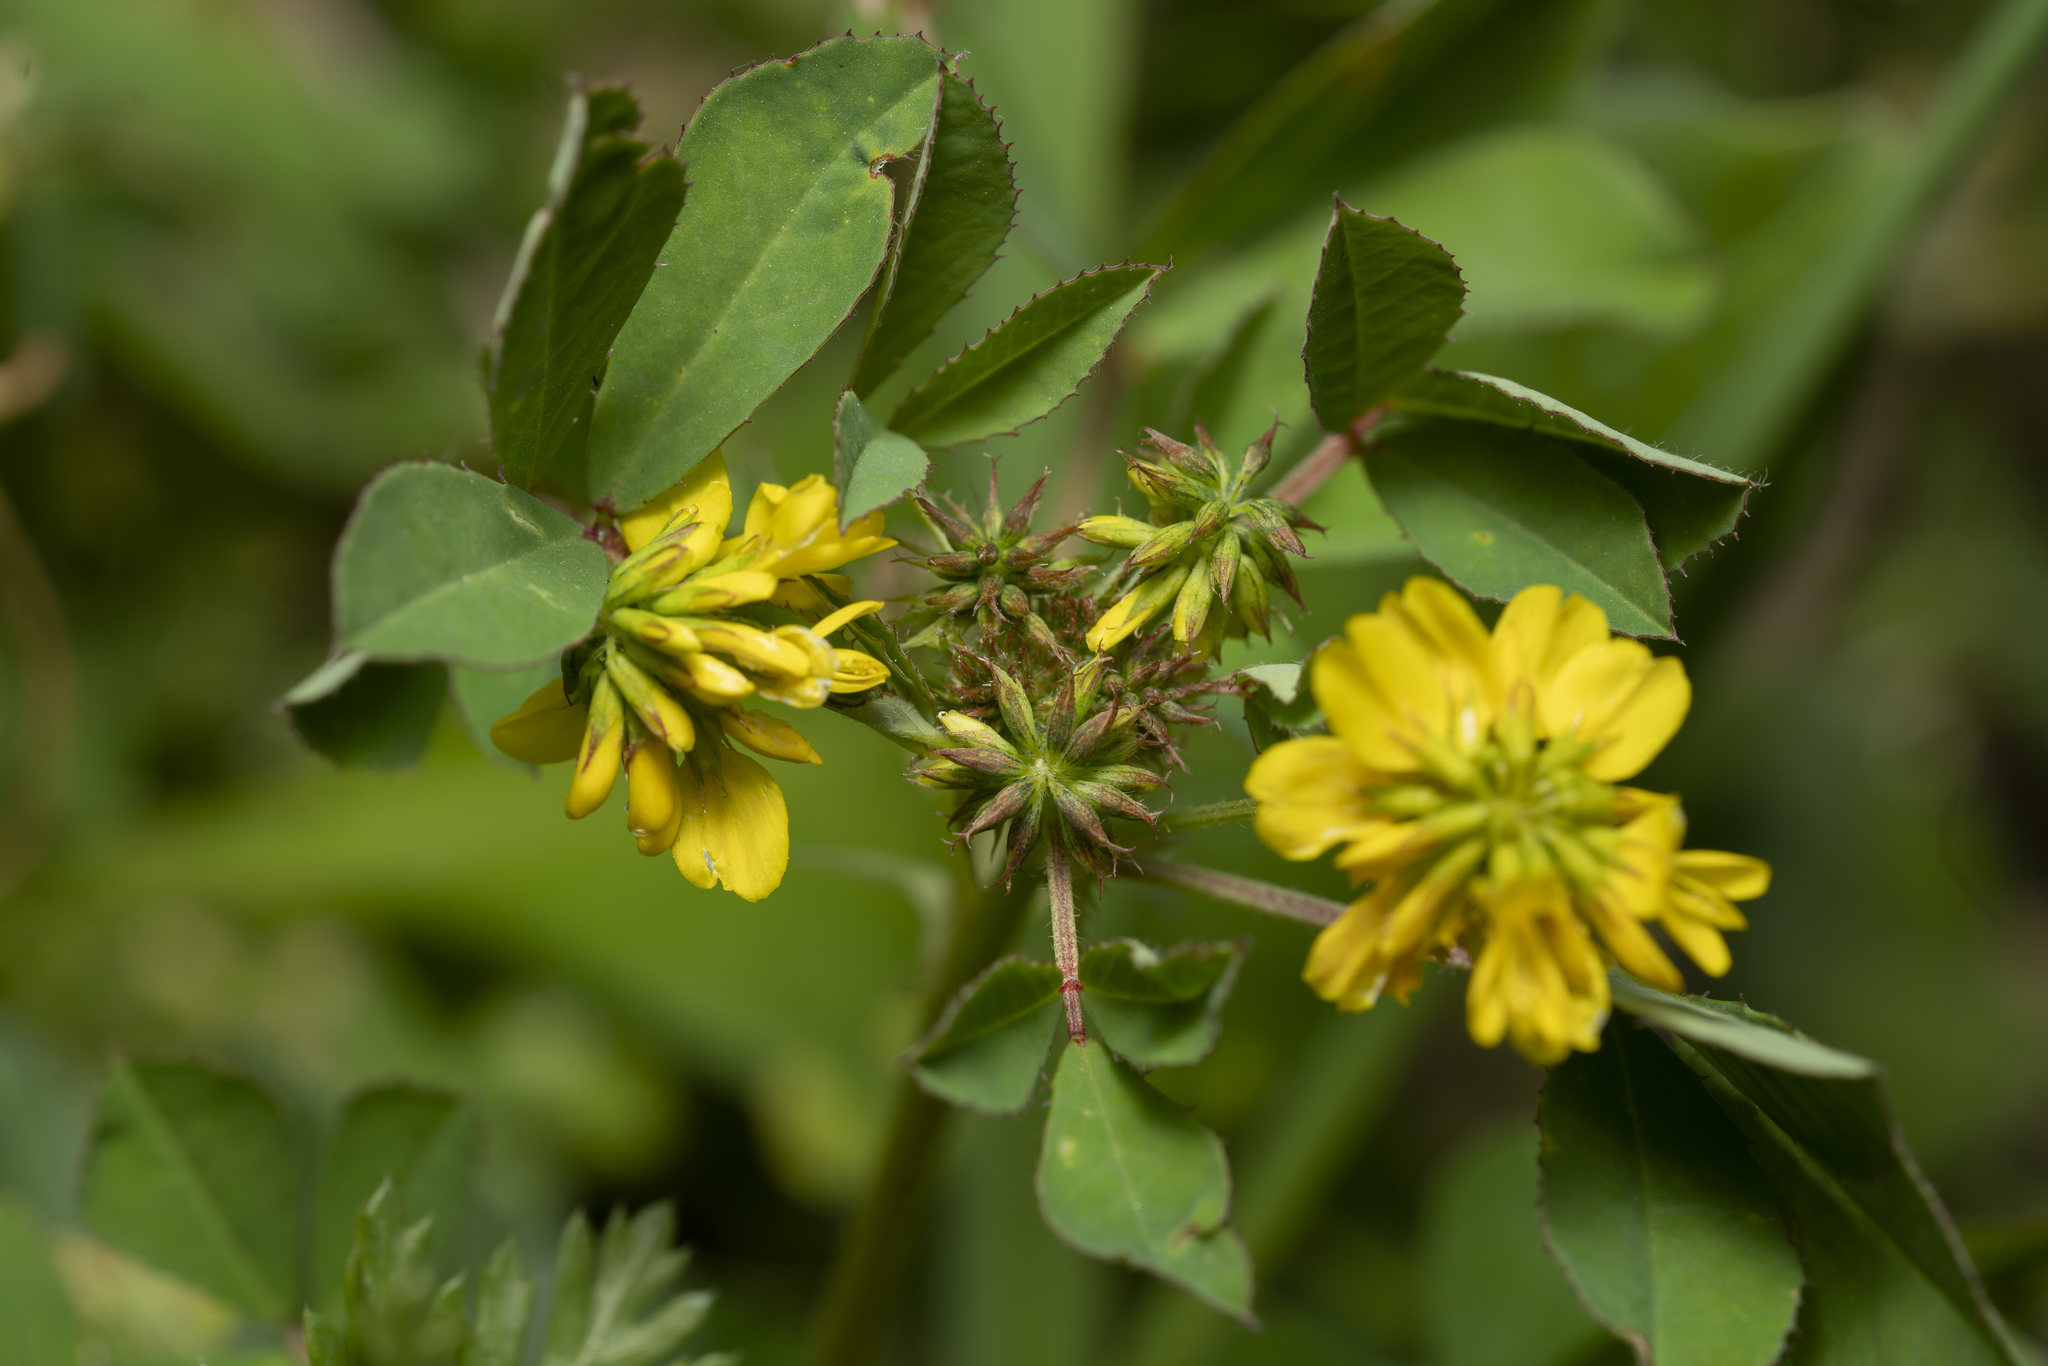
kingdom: Plantae
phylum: Tracheophyta
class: Magnoliopsida
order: Fabales
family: Fabaceae
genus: Trigonella
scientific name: Trigonella balansae
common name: Sickle-fruited fenugreek
